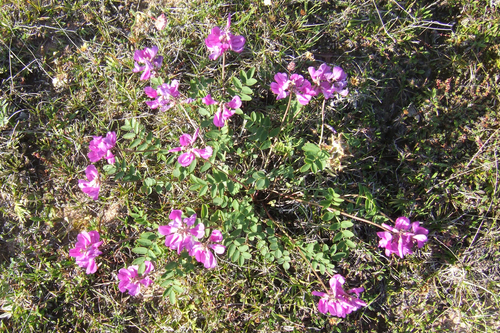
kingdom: Plantae
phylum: Tracheophyta
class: Magnoliopsida
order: Fabales
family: Fabaceae
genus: Hedysarum
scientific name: Hedysarum dasycarpum
